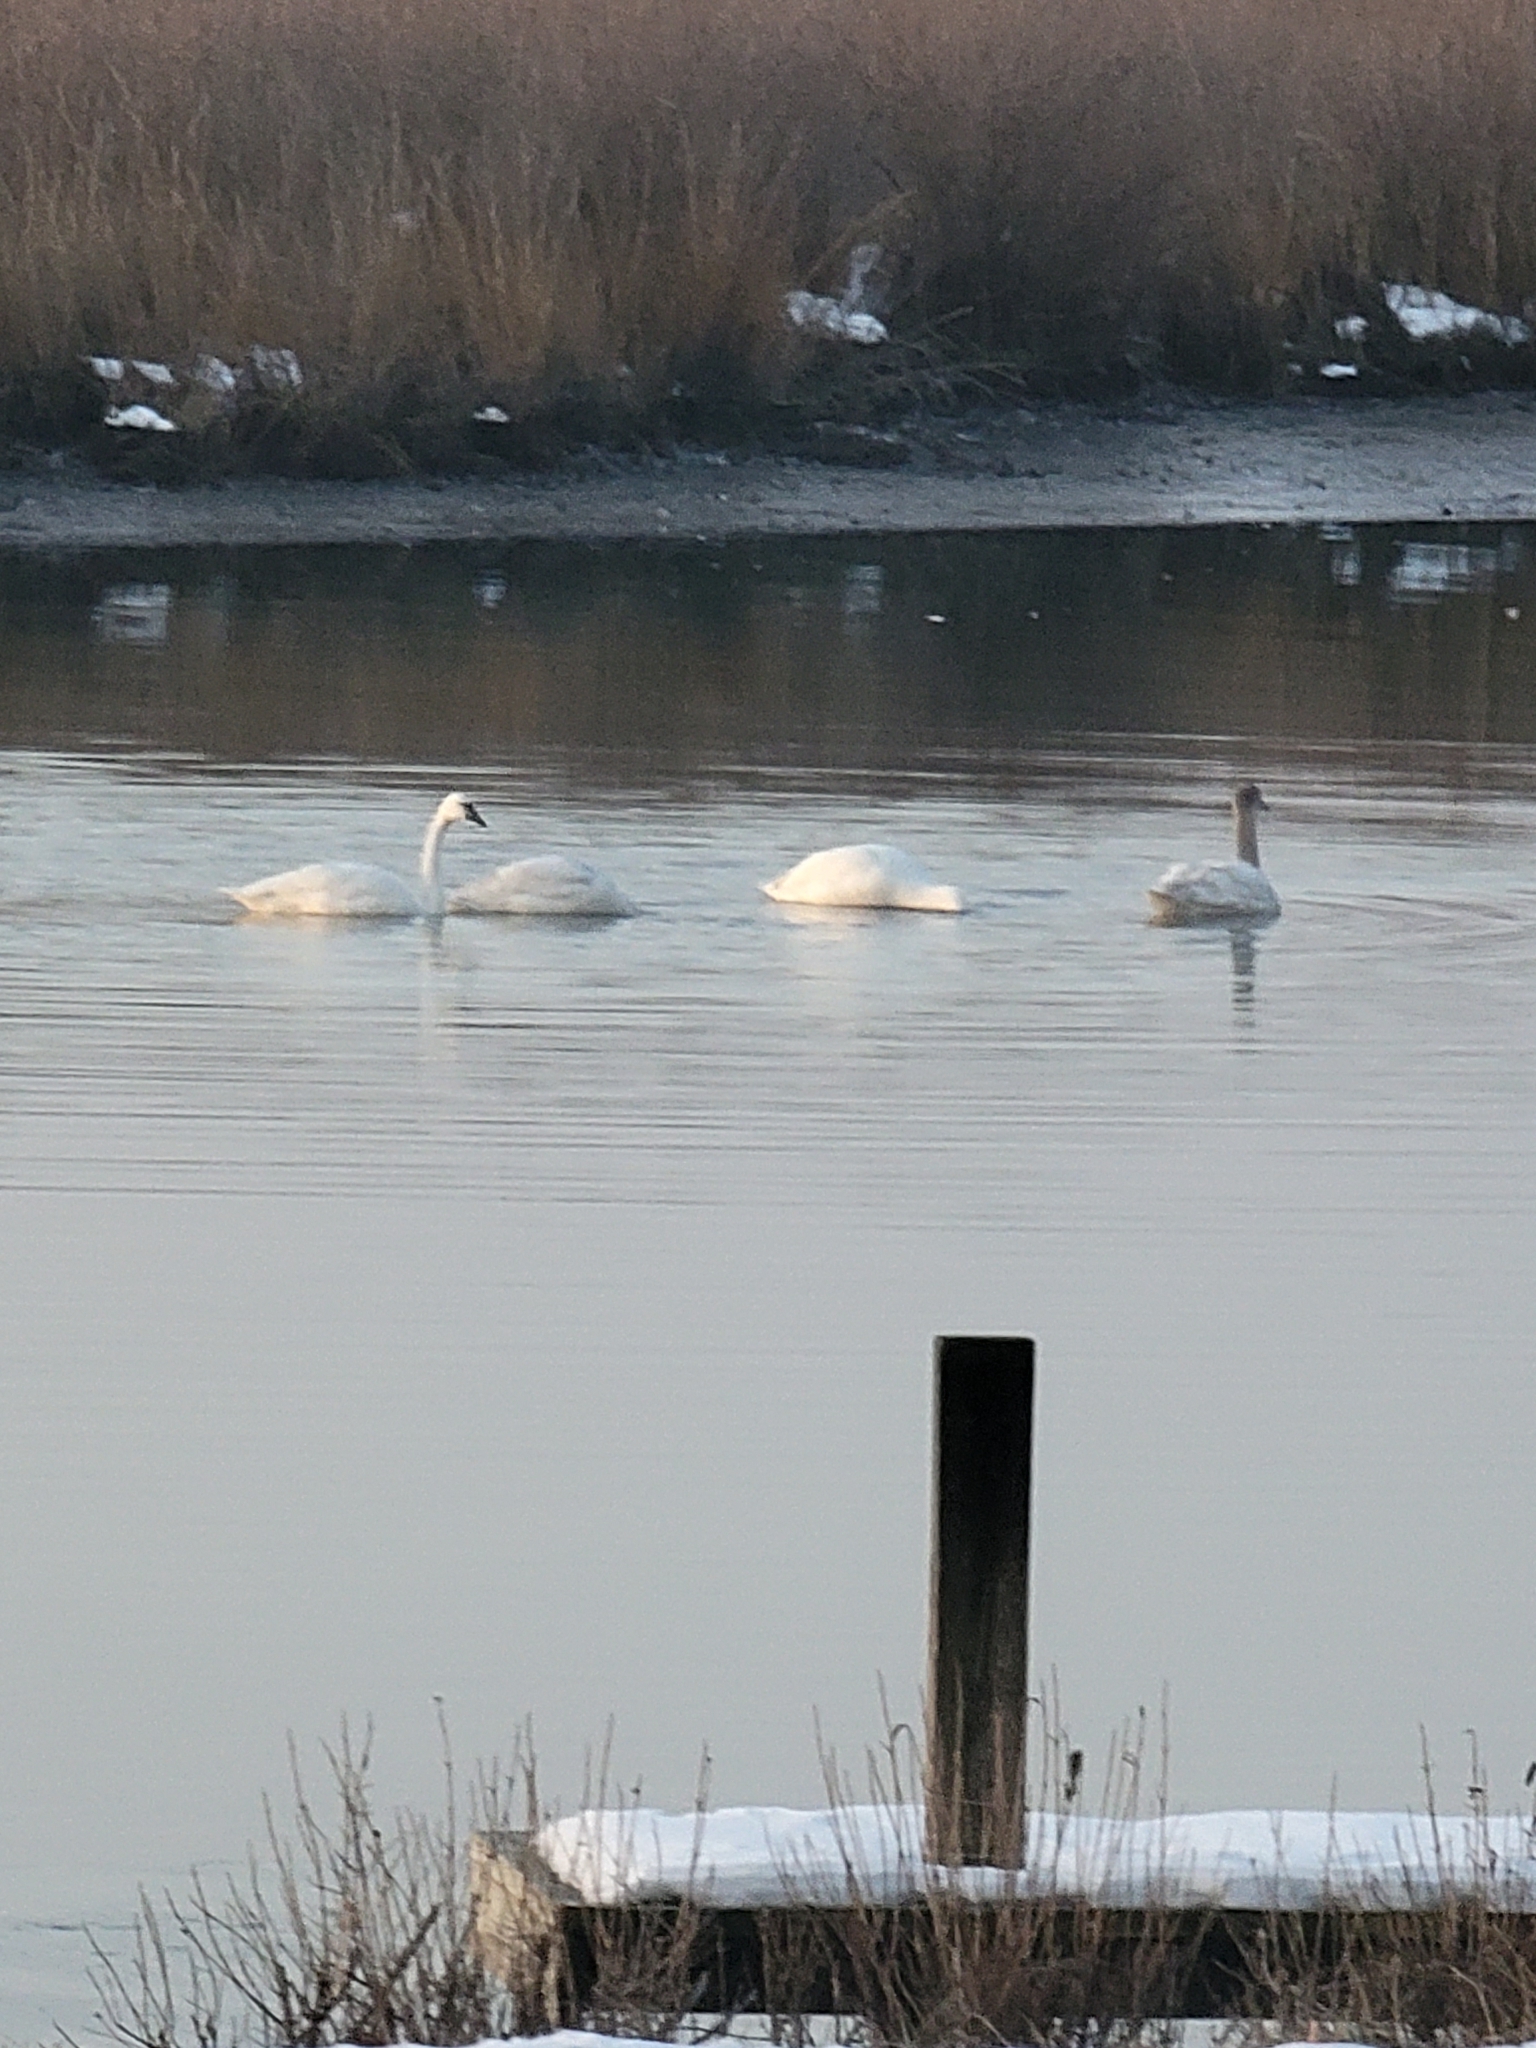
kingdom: Animalia
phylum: Chordata
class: Aves
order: Anseriformes
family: Anatidae
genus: Cygnus
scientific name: Cygnus columbianus
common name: Tundra swan
